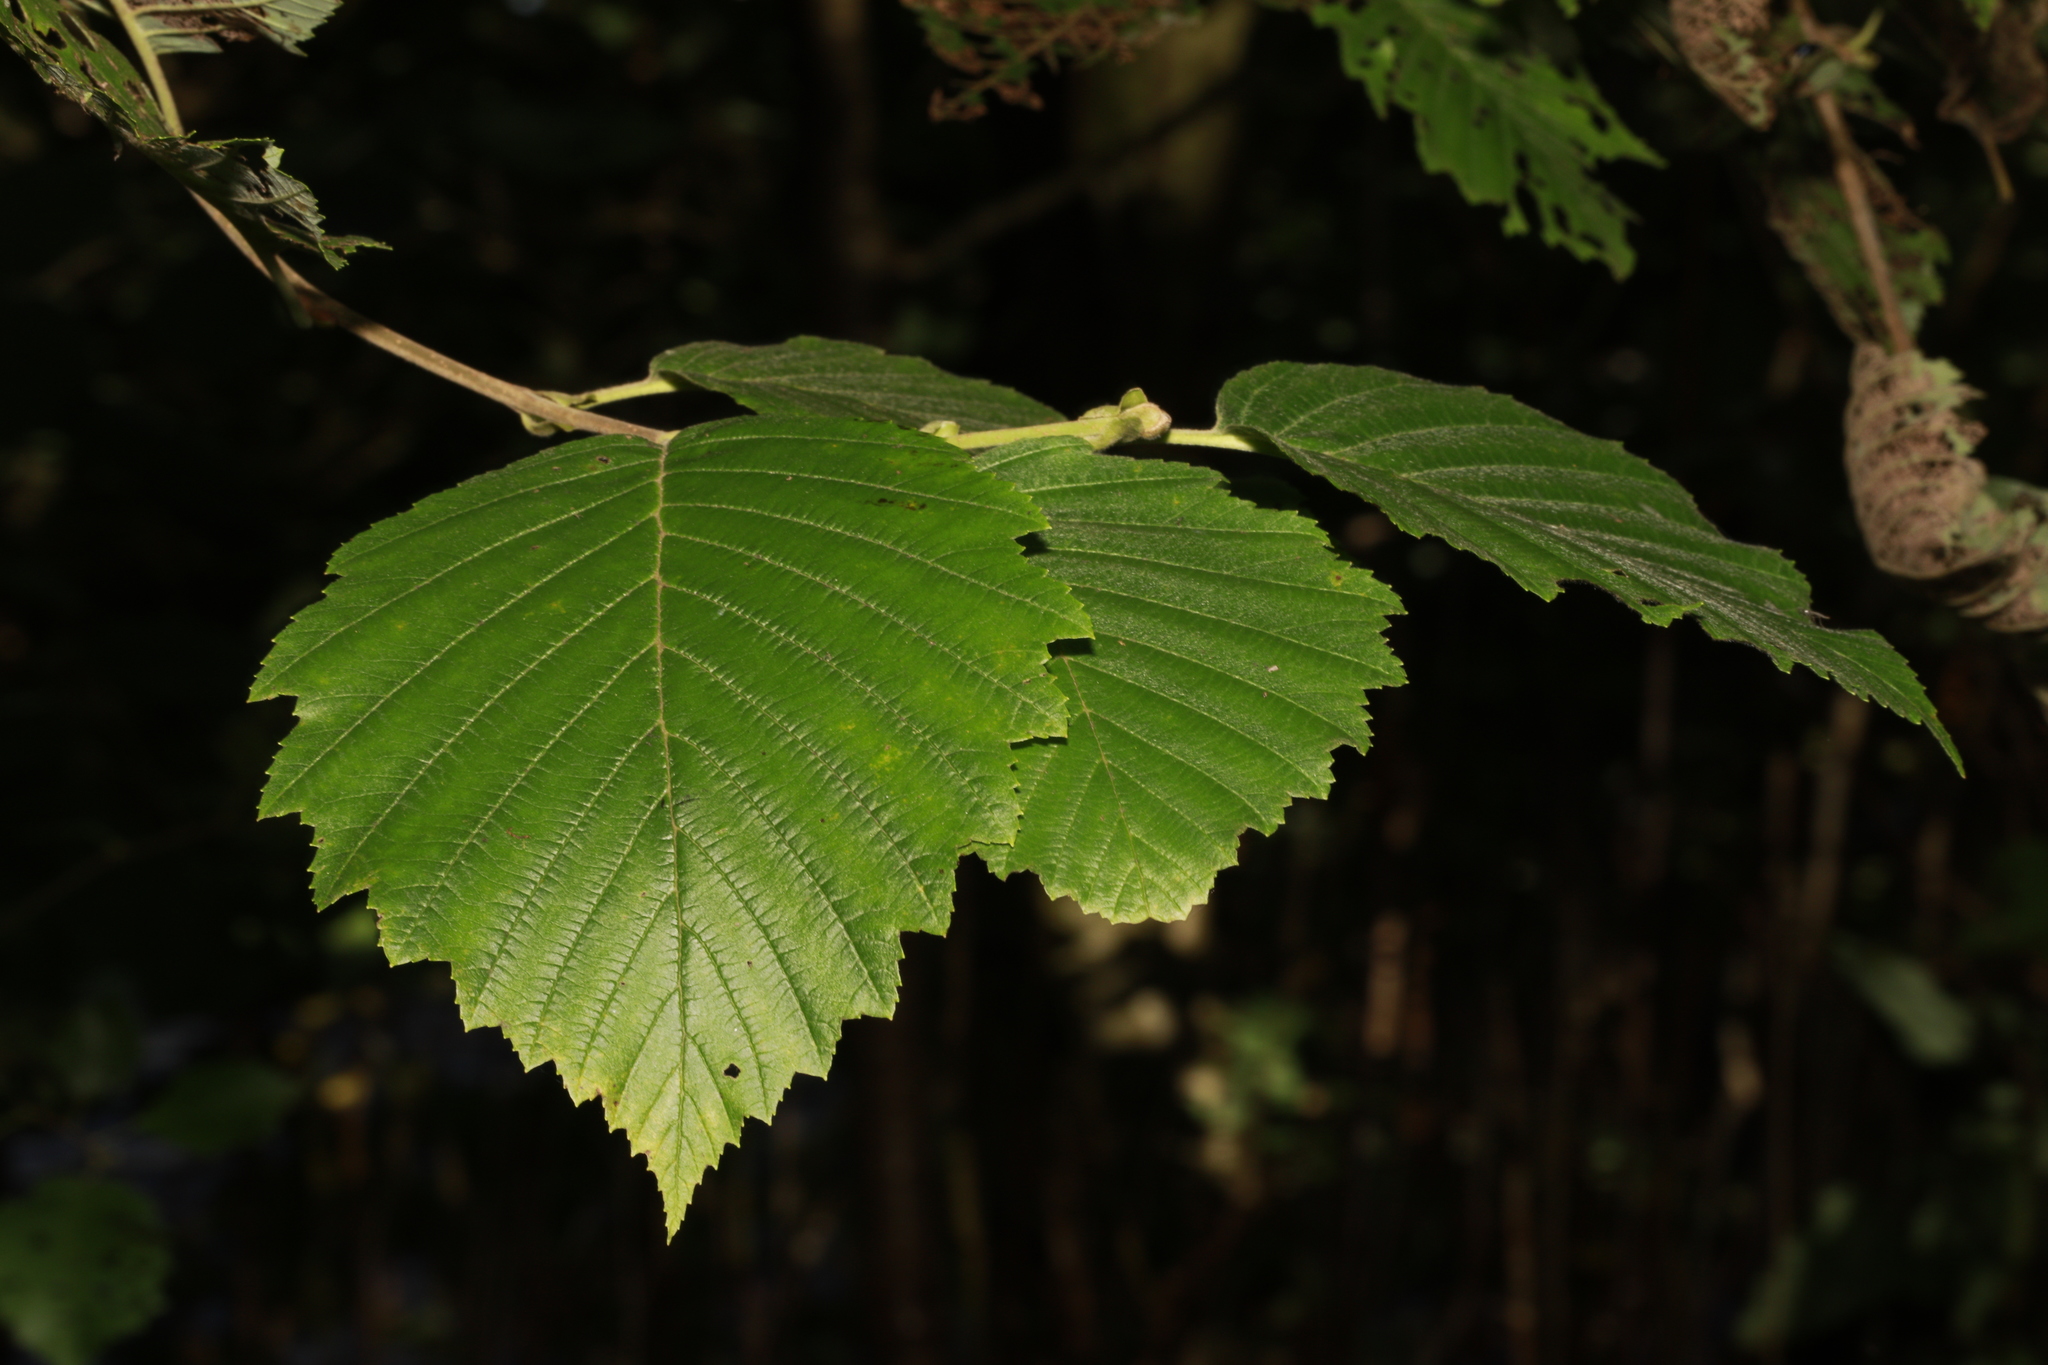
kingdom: Plantae
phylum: Tracheophyta
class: Magnoliopsida
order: Fagales
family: Betulaceae
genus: Alnus
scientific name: Alnus incana
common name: Grey alder
